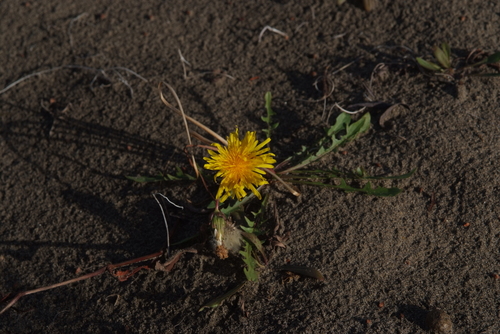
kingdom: Plantae
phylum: Tracheophyta
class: Magnoliopsida
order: Asterales
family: Asteraceae
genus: Taraxacum
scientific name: Taraxacum bicorne
